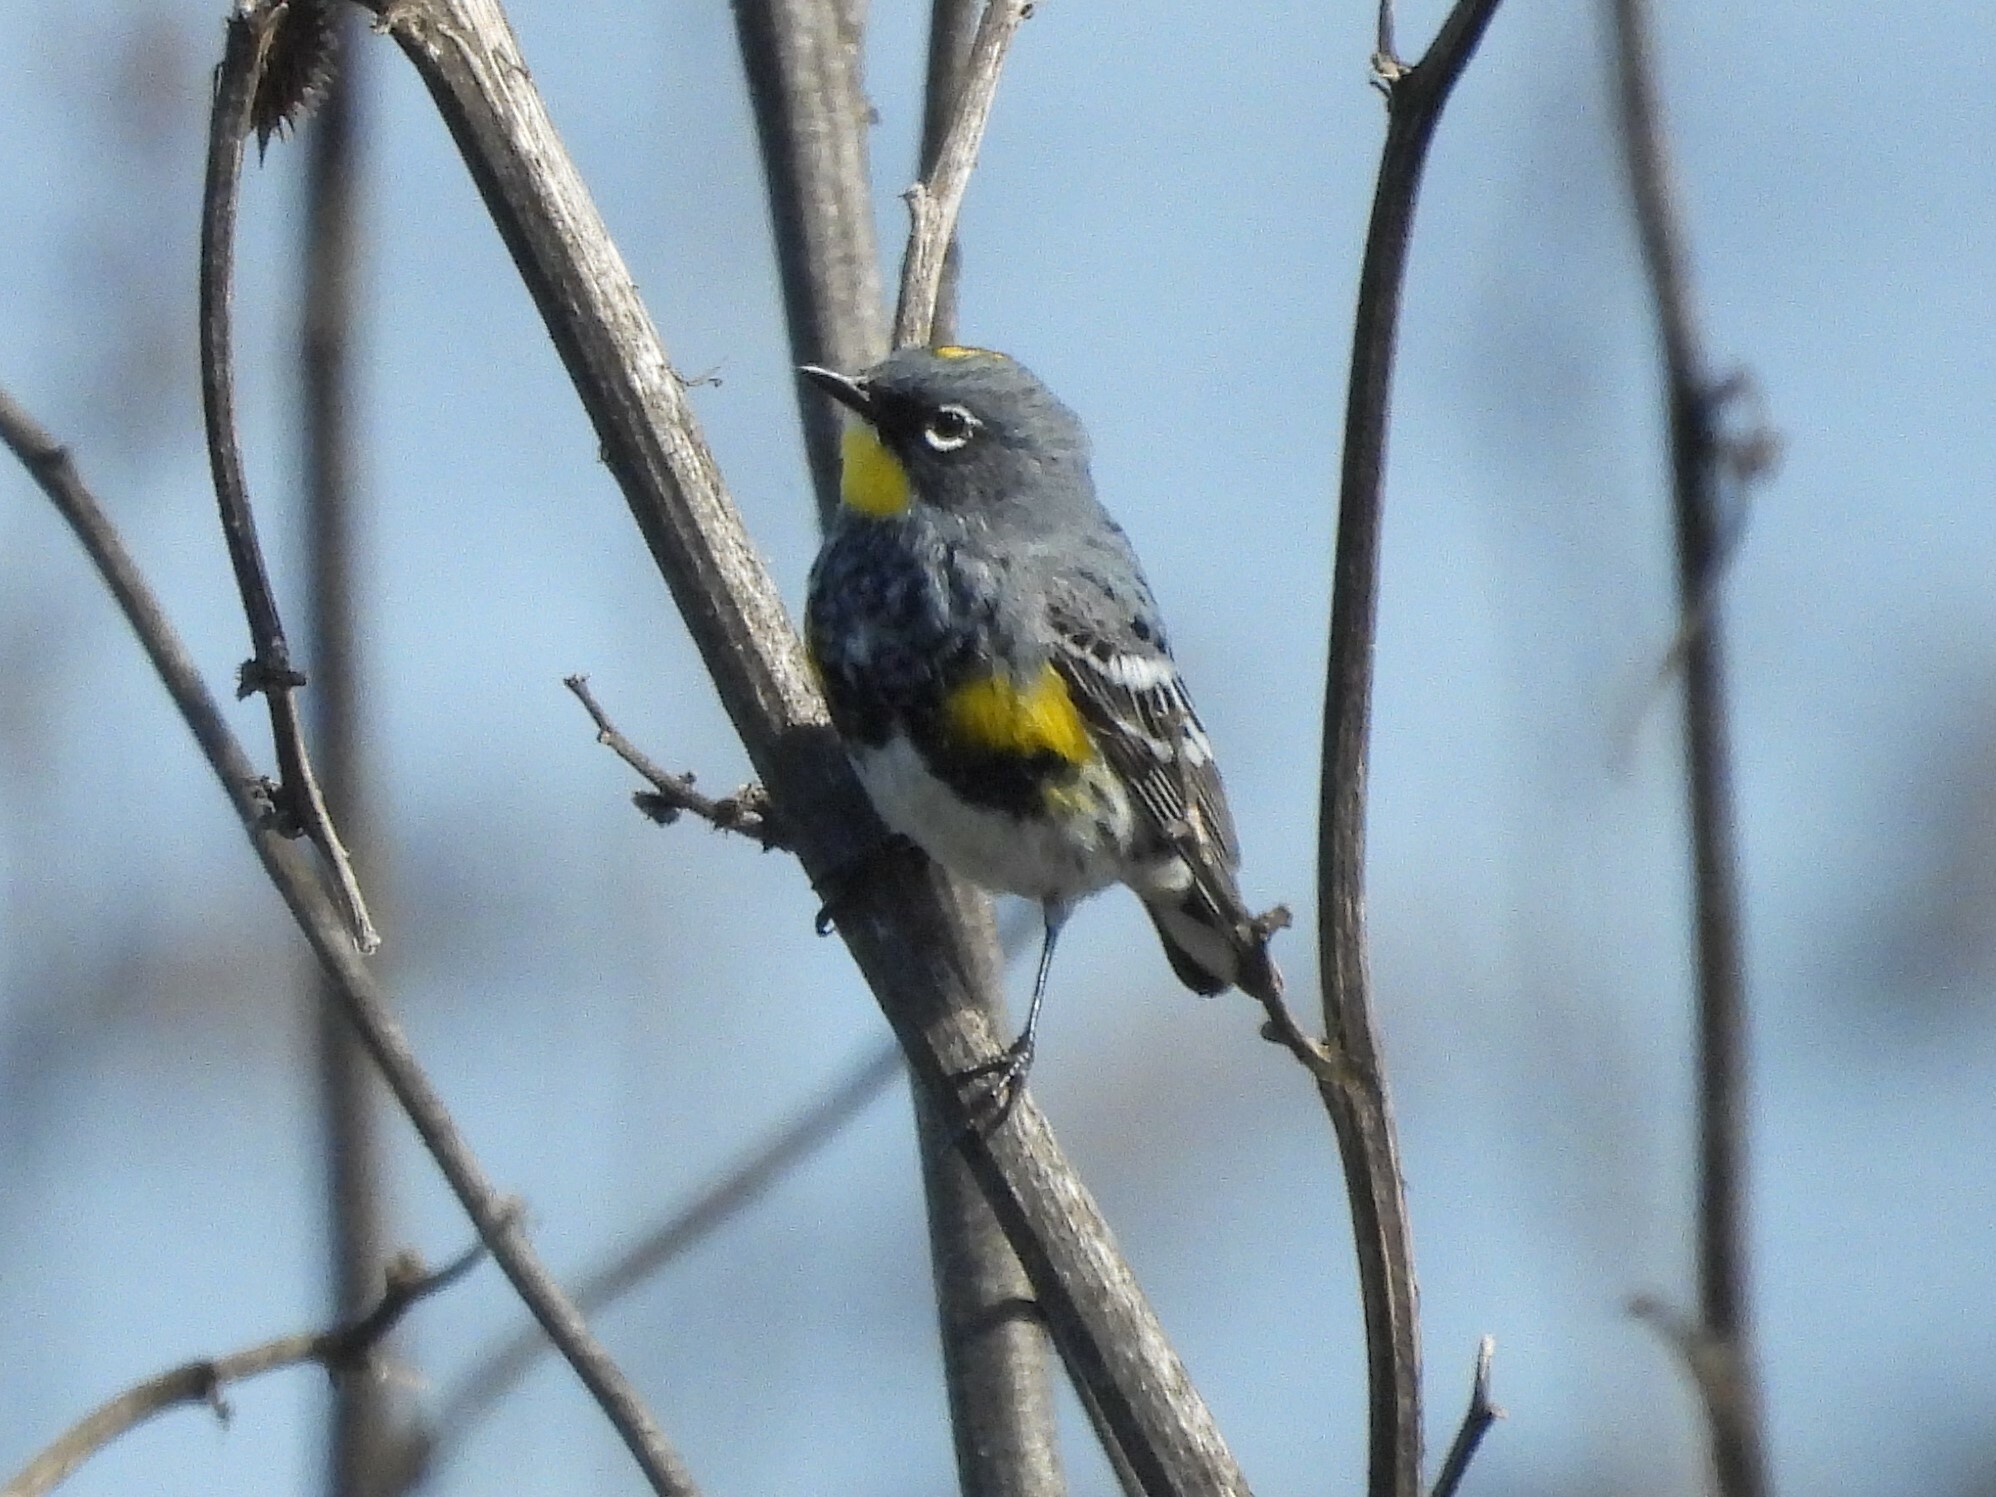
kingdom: Animalia
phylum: Chordata
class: Aves
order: Passeriformes
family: Parulidae
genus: Setophaga
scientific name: Setophaga coronata
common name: Myrtle warbler
